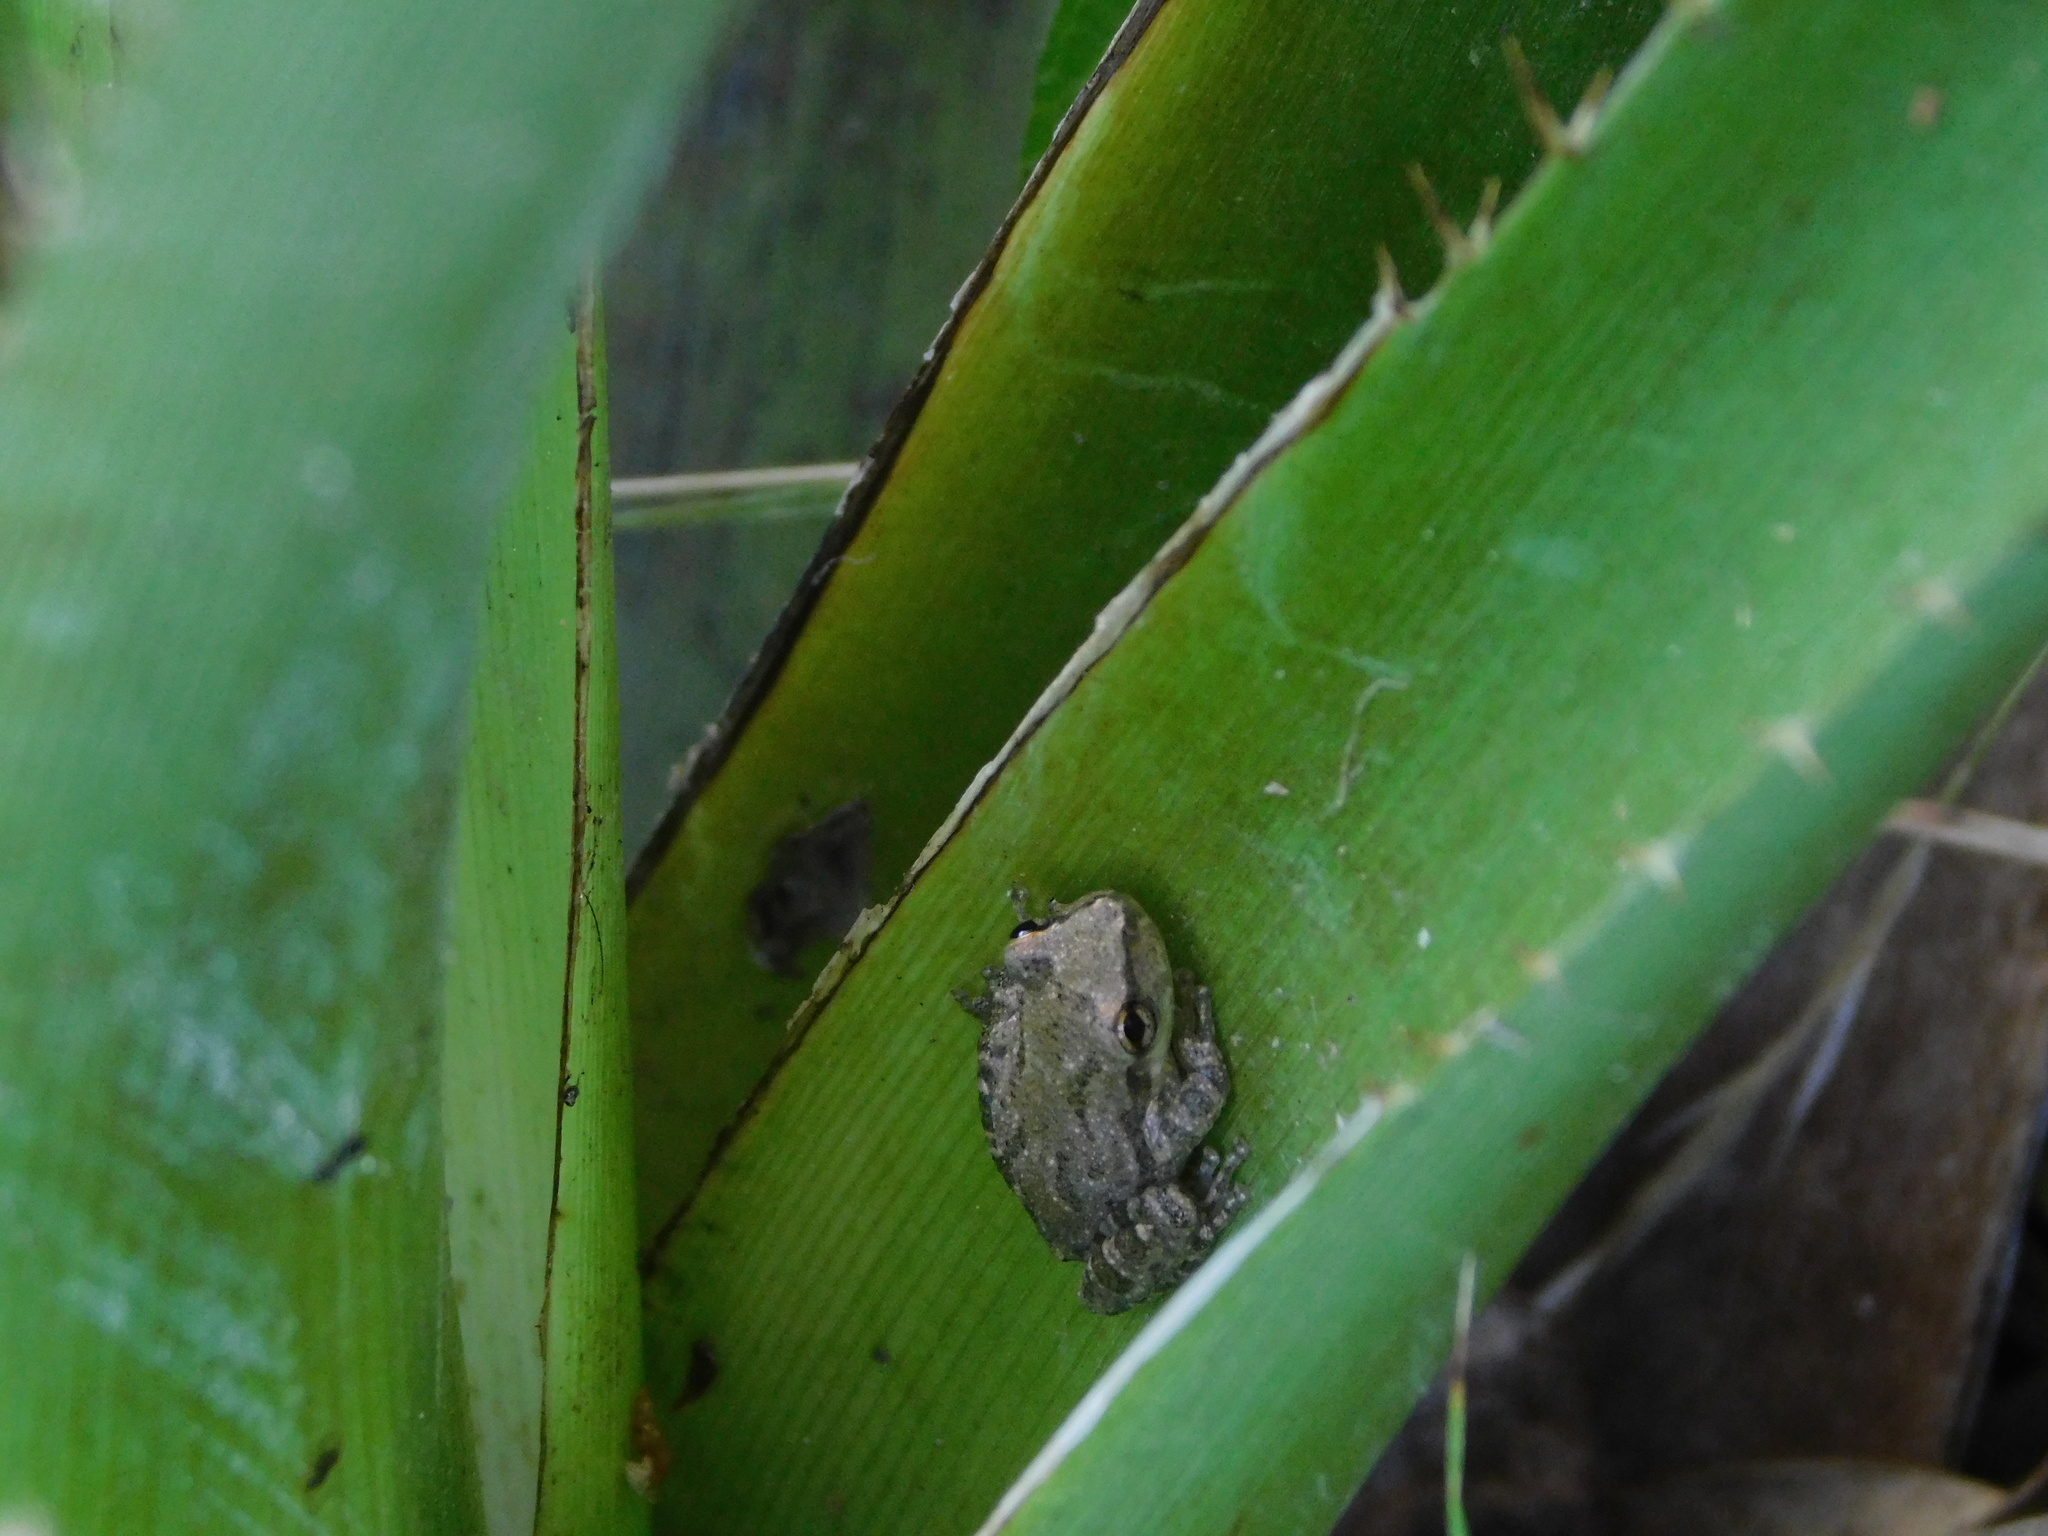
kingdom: Animalia
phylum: Chordata
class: Amphibia
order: Anura
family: Hylidae
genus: Scinax
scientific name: Scinax granulatus
